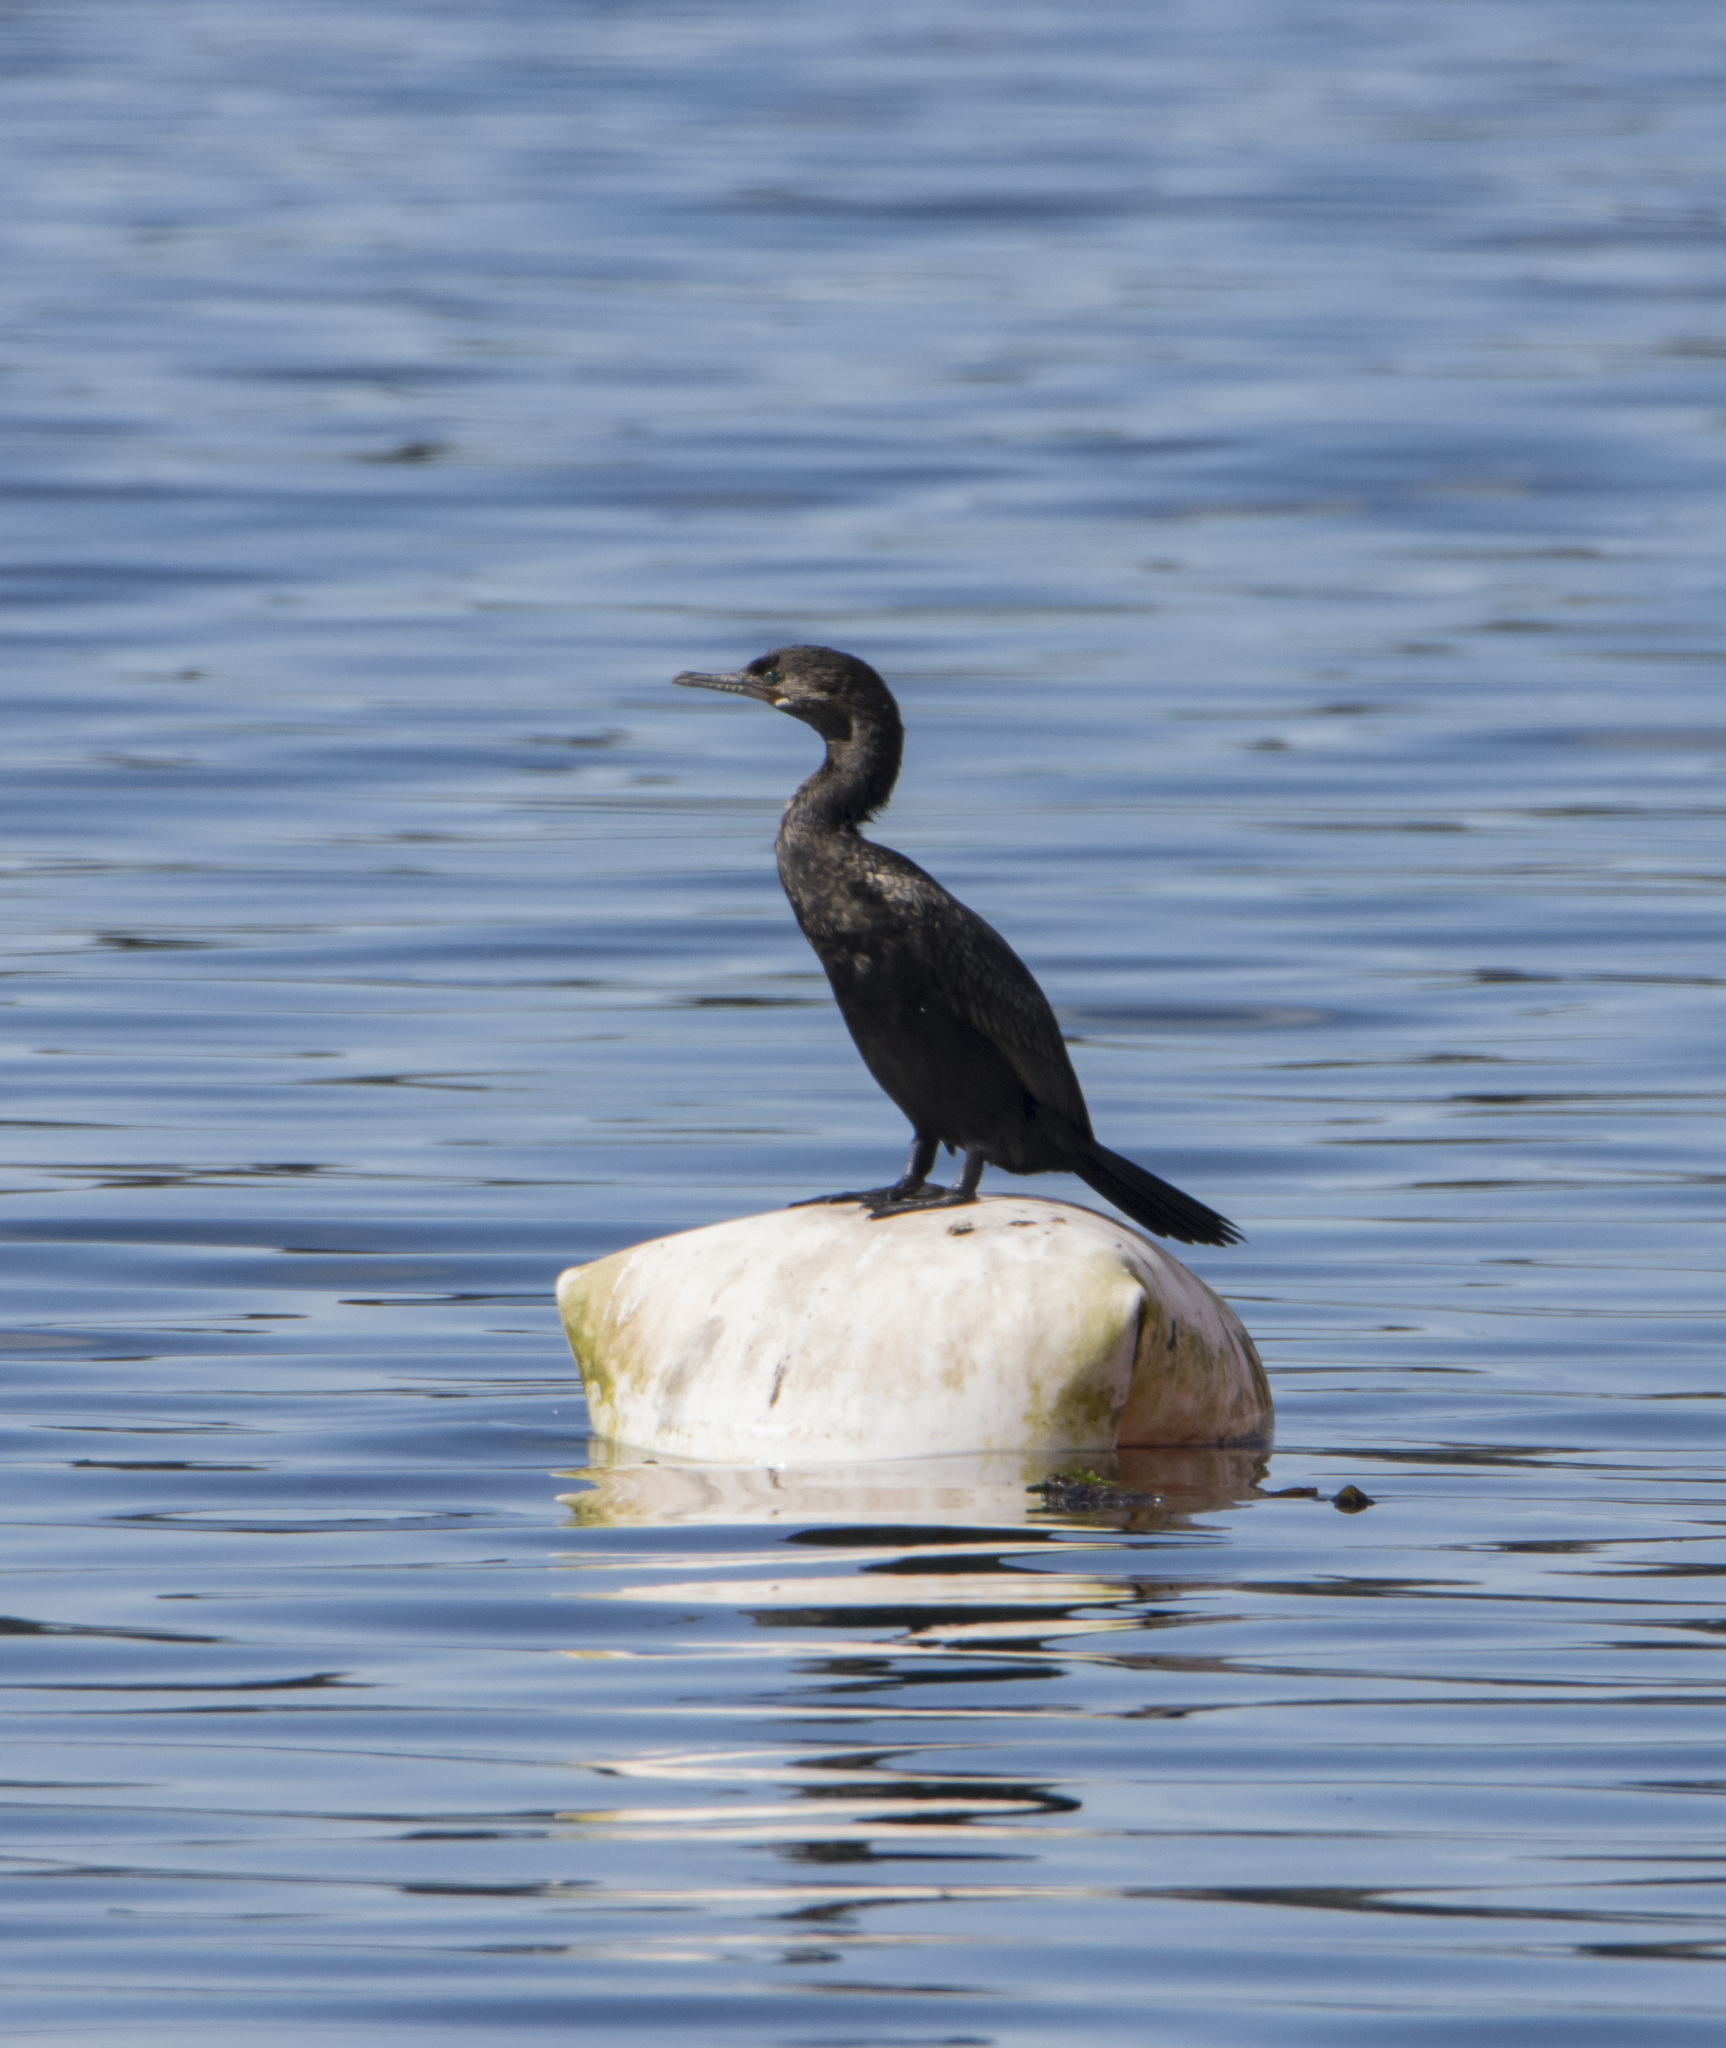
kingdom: Animalia
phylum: Chordata
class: Aves
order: Suliformes
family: Phalacrocoracidae
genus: Phalacrocorax
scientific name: Phalacrocorax brasilianus
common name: Neotropic cormorant
